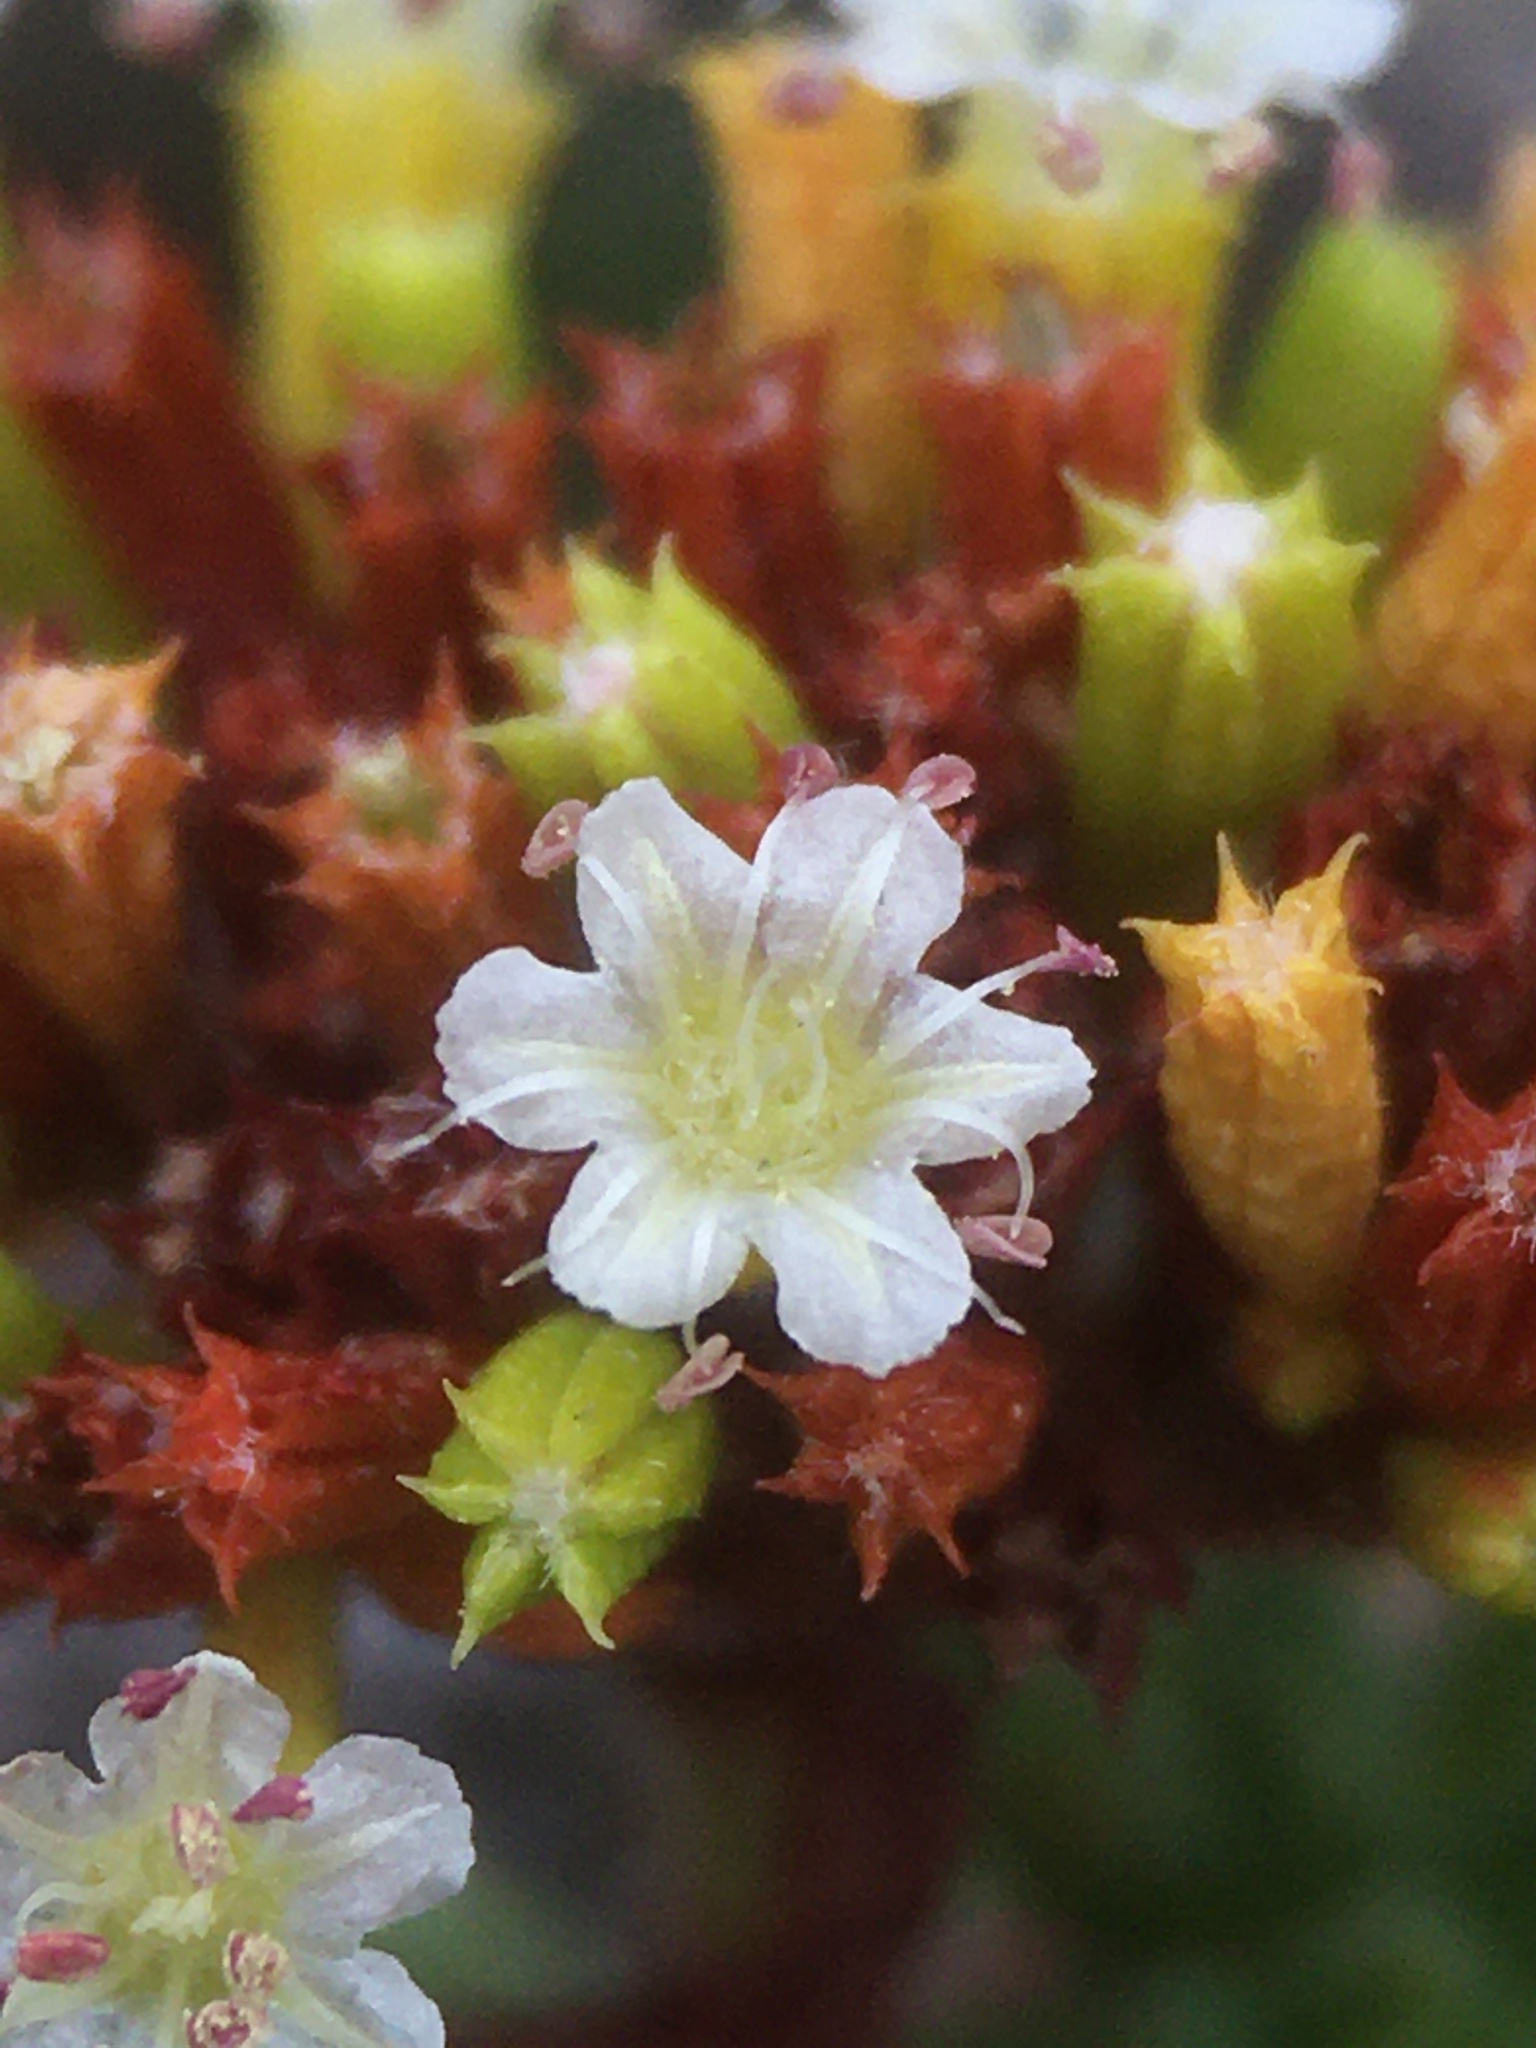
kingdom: Plantae
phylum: Tracheophyta
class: Magnoliopsida
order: Caryophyllales
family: Polygonaceae
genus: Chorizanthe
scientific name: Chorizanthe flavescens
